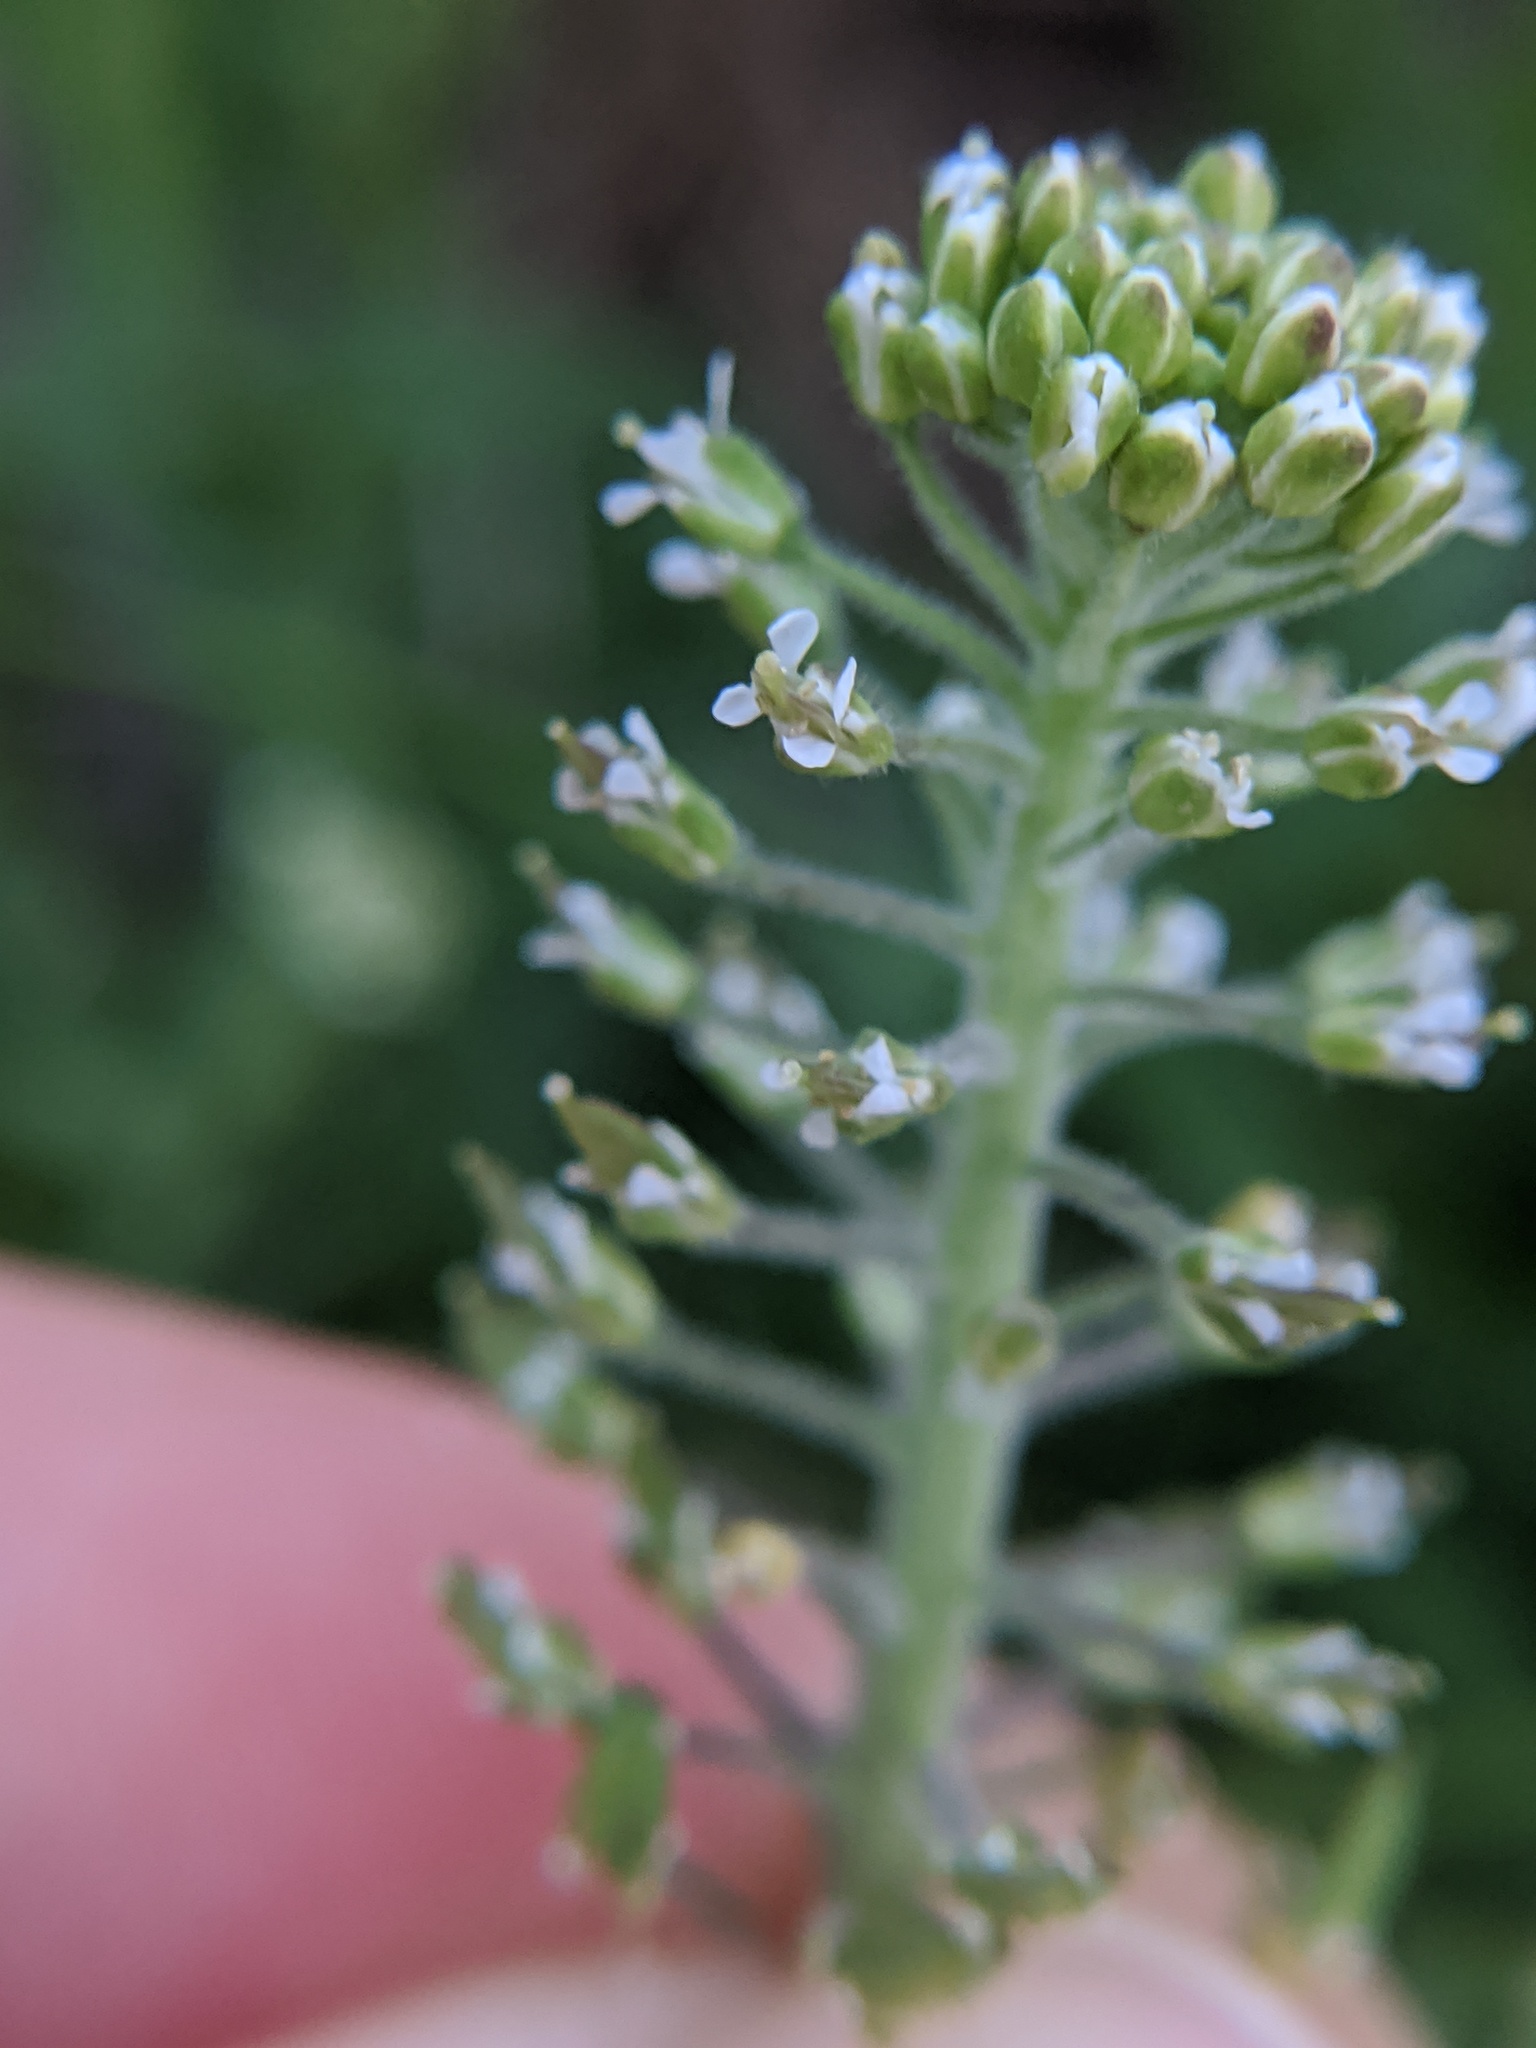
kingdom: Plantae
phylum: Tracheophyta
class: Magnoliopsida
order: Brassicales
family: Brassicaceae
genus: Lepidium
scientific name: Lepidium campestre
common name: Field pepperwort
